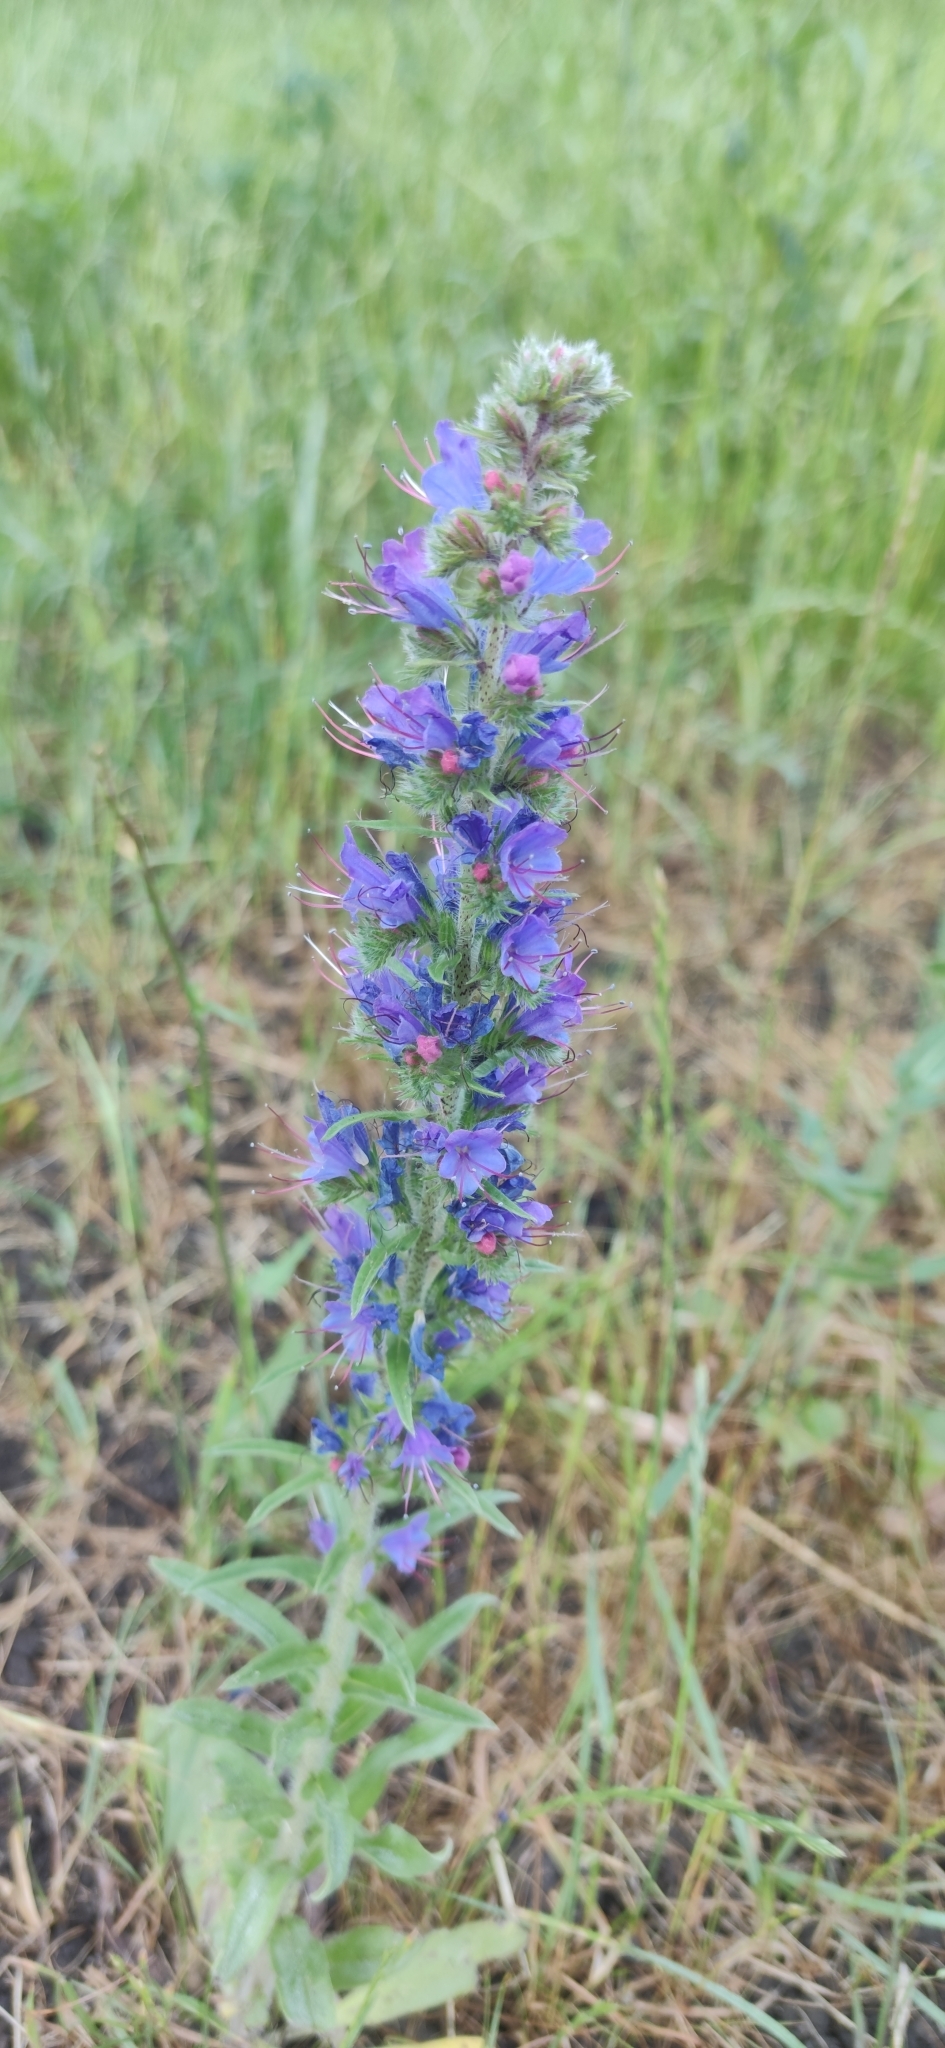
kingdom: Plantae
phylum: Tracheophyta
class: Magnoliopsida
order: Boraginales
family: Boraginaceae
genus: Echium
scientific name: Echium vulgare
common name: Common viper's bugloss
